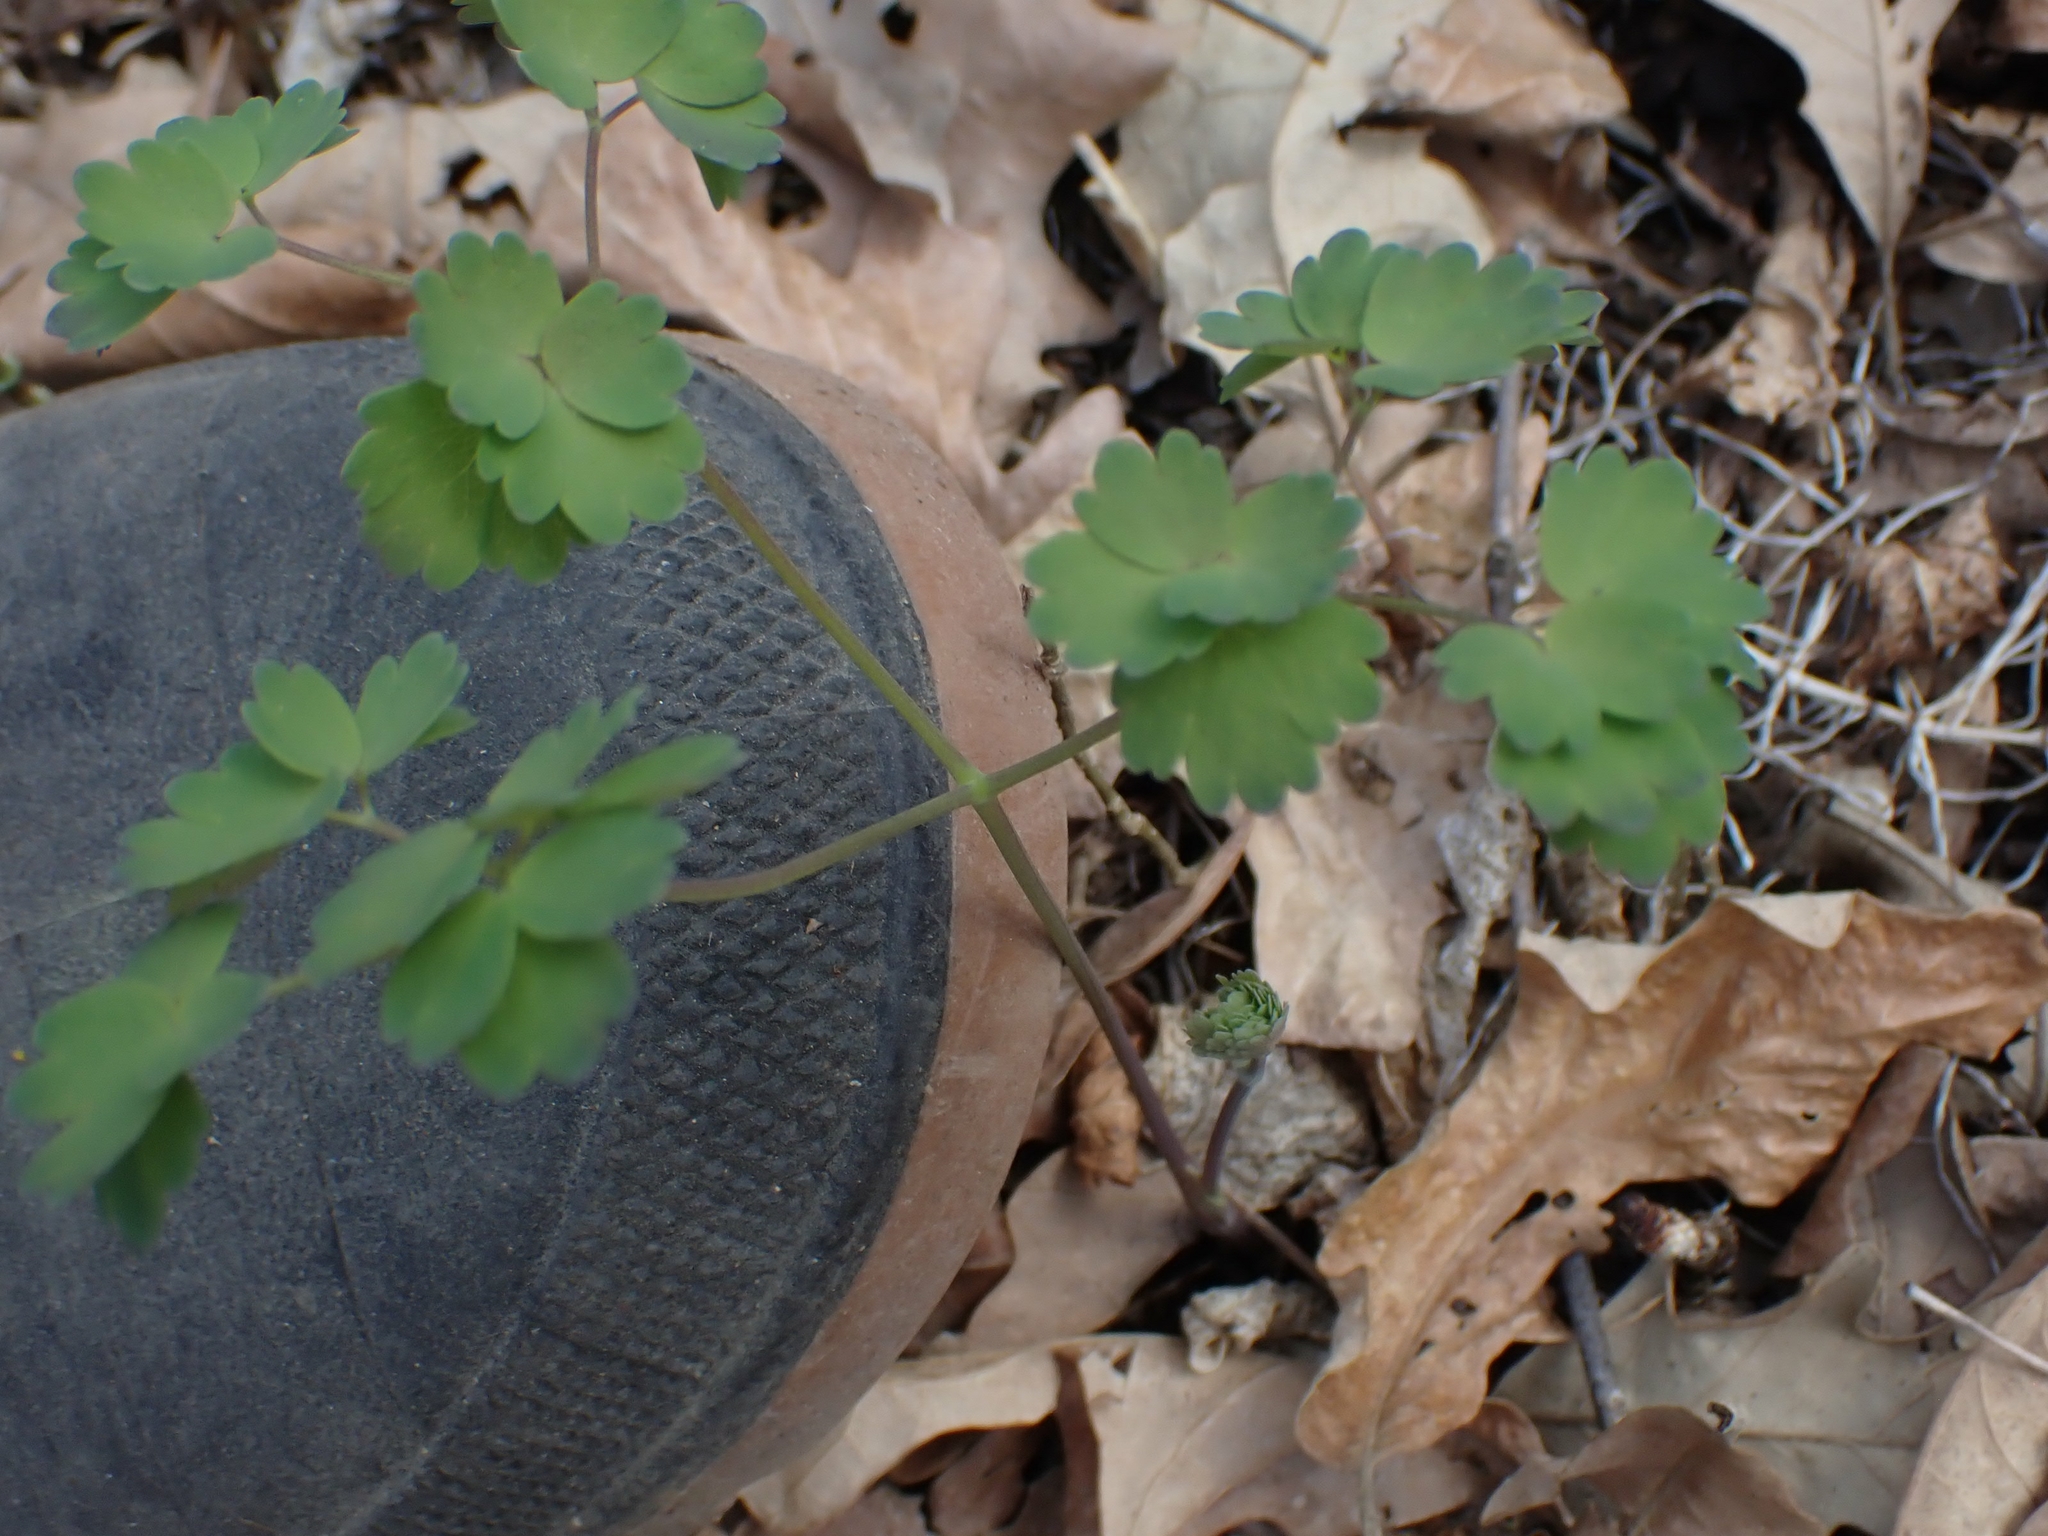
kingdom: Plantae
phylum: Tracheophyta
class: Magnoliopsida
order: Ranunculales
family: Ranunculaceae
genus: Thalictrum
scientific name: Thalictrum venulosum
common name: Early meadow-rue
